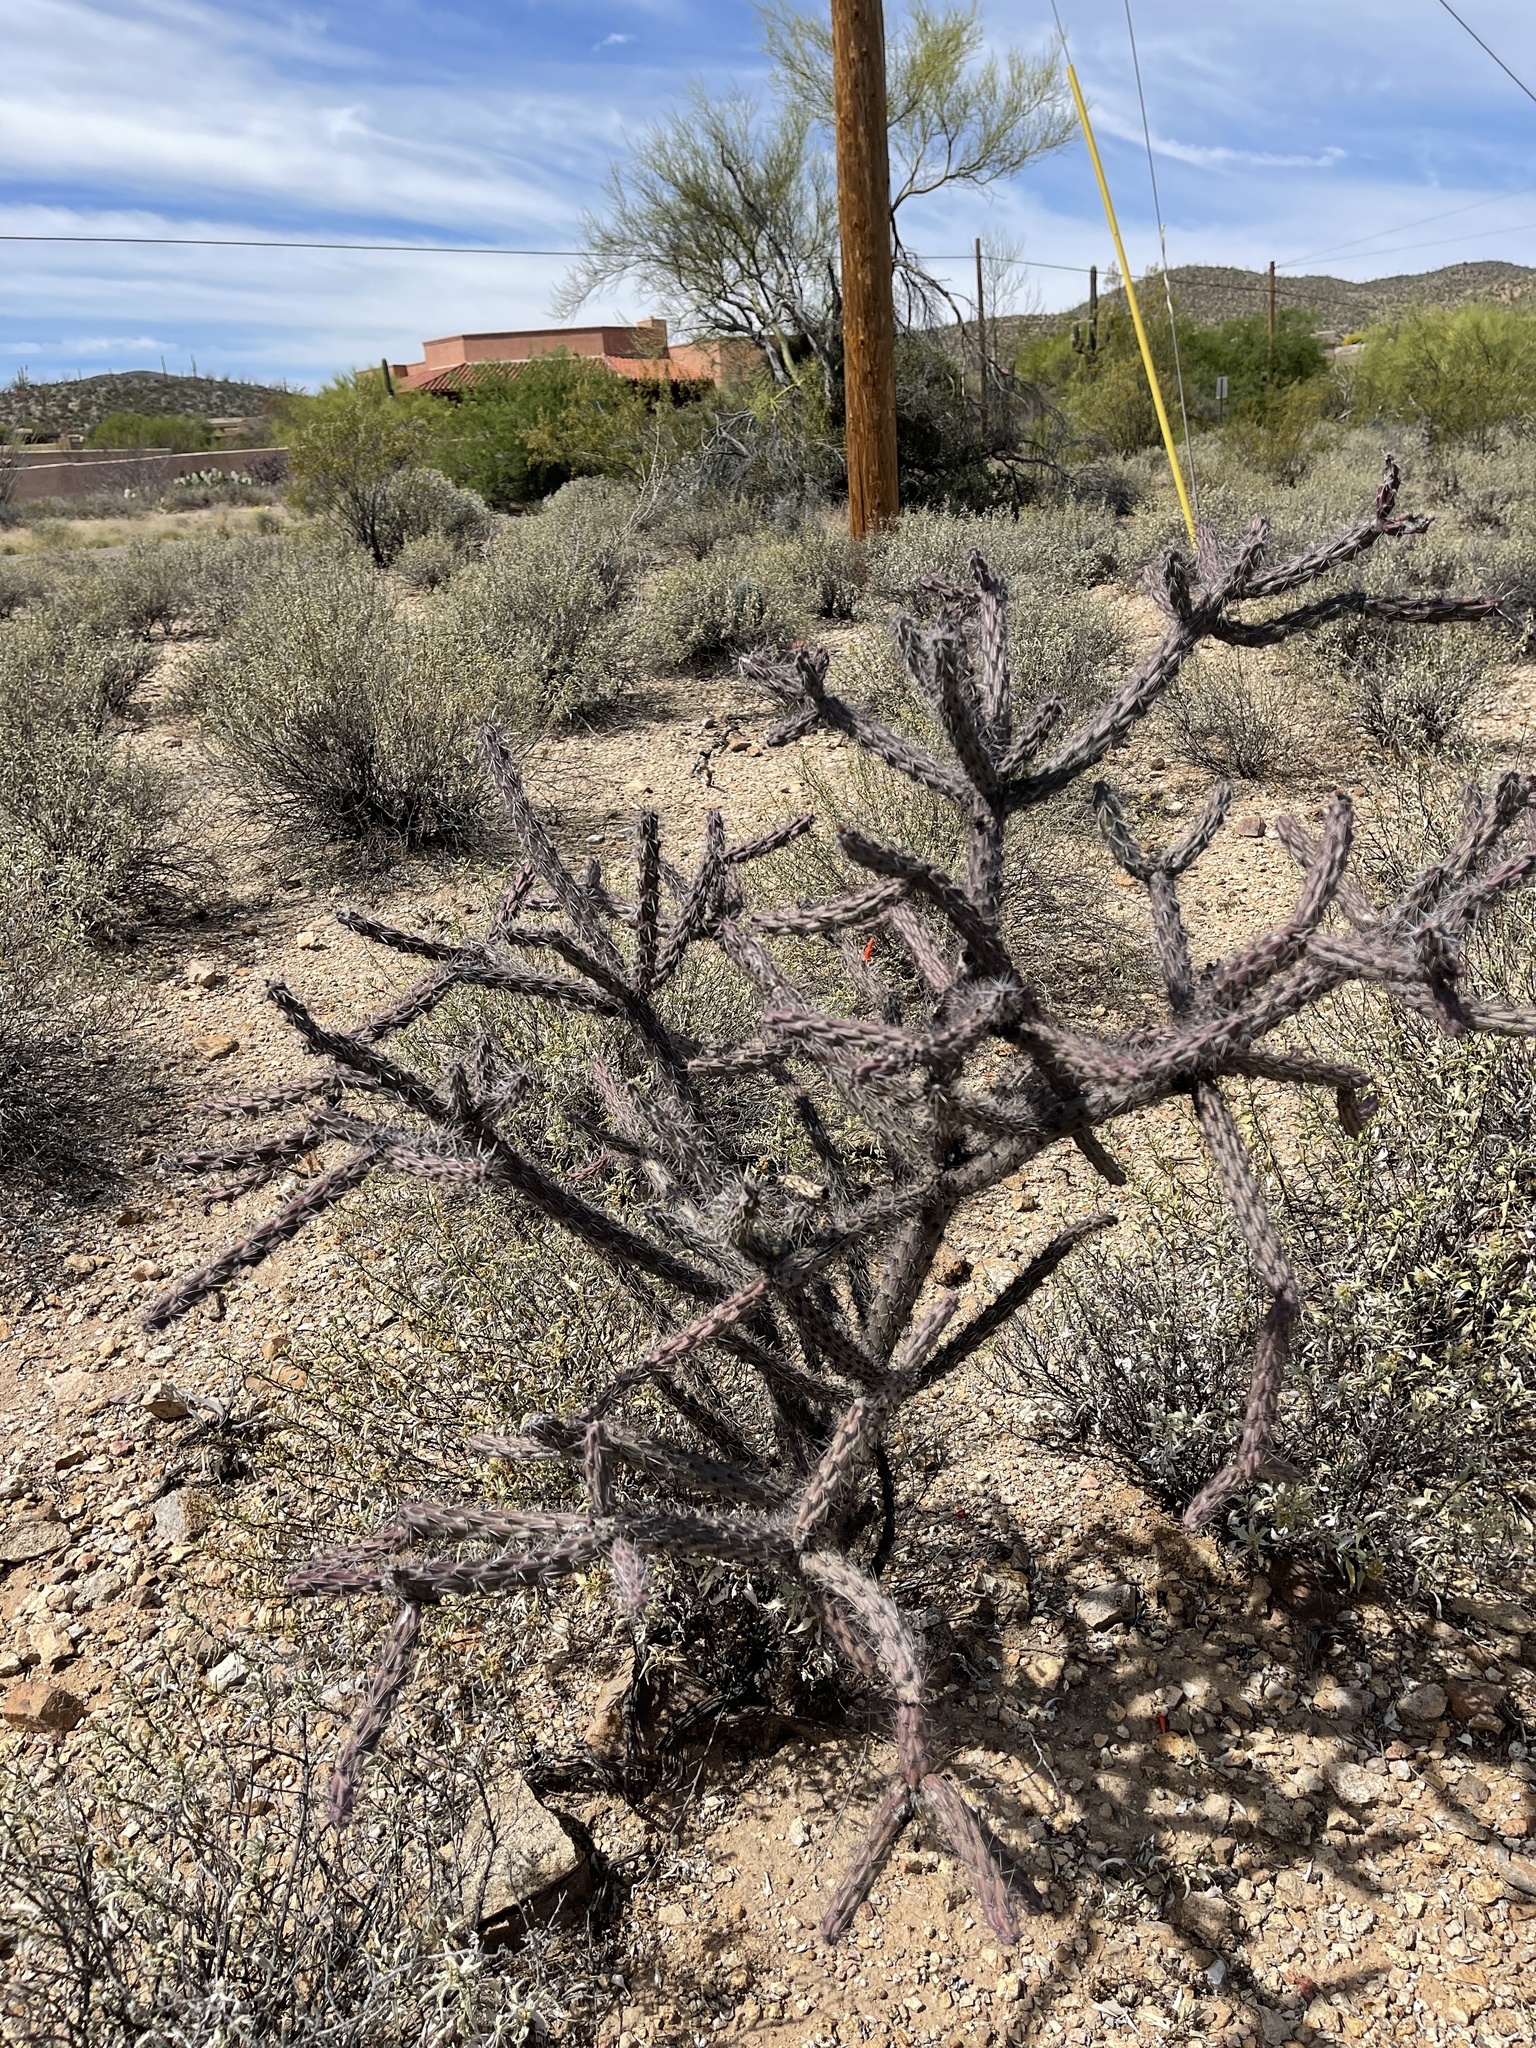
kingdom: Plantae
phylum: Tracheophyta
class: Magnoliopsida
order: Caryophyllales
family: Cactaceae
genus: Cylindropuntia
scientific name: Cylindropuntia thurberi
